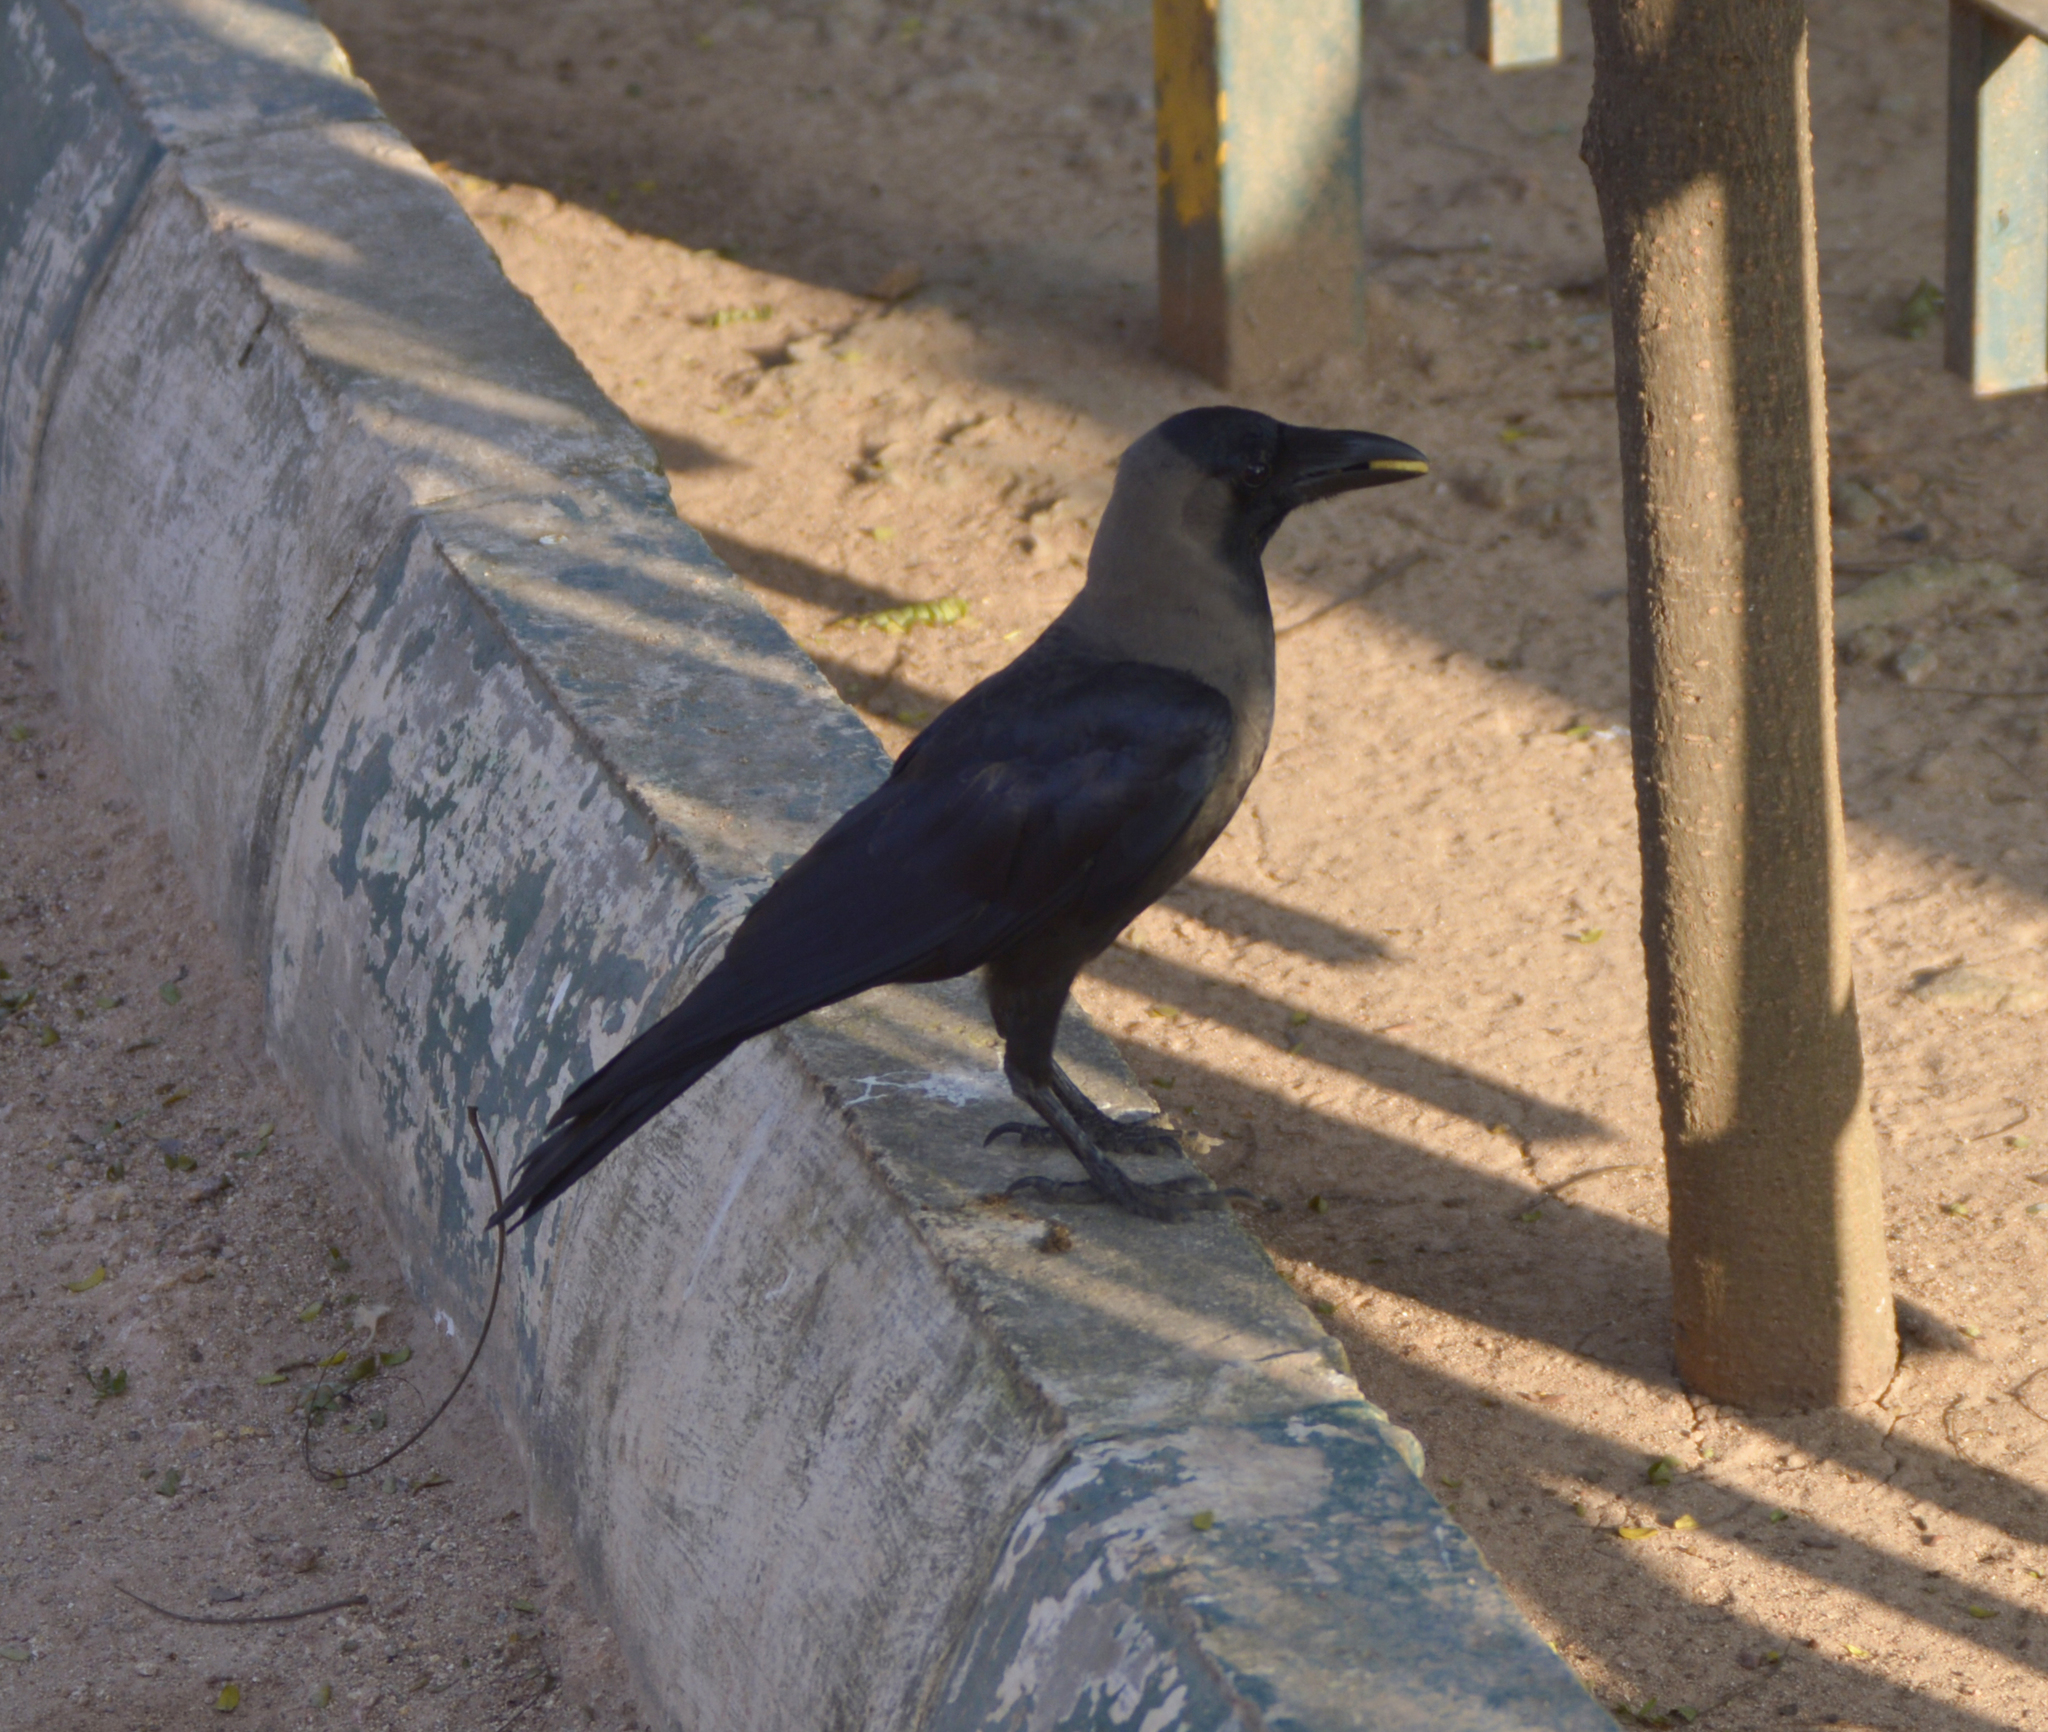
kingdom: Animalia
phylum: Chordata
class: Aves
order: Passeriformes
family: Corvidae
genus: Corvus
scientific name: Corvus splendens
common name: House crow
